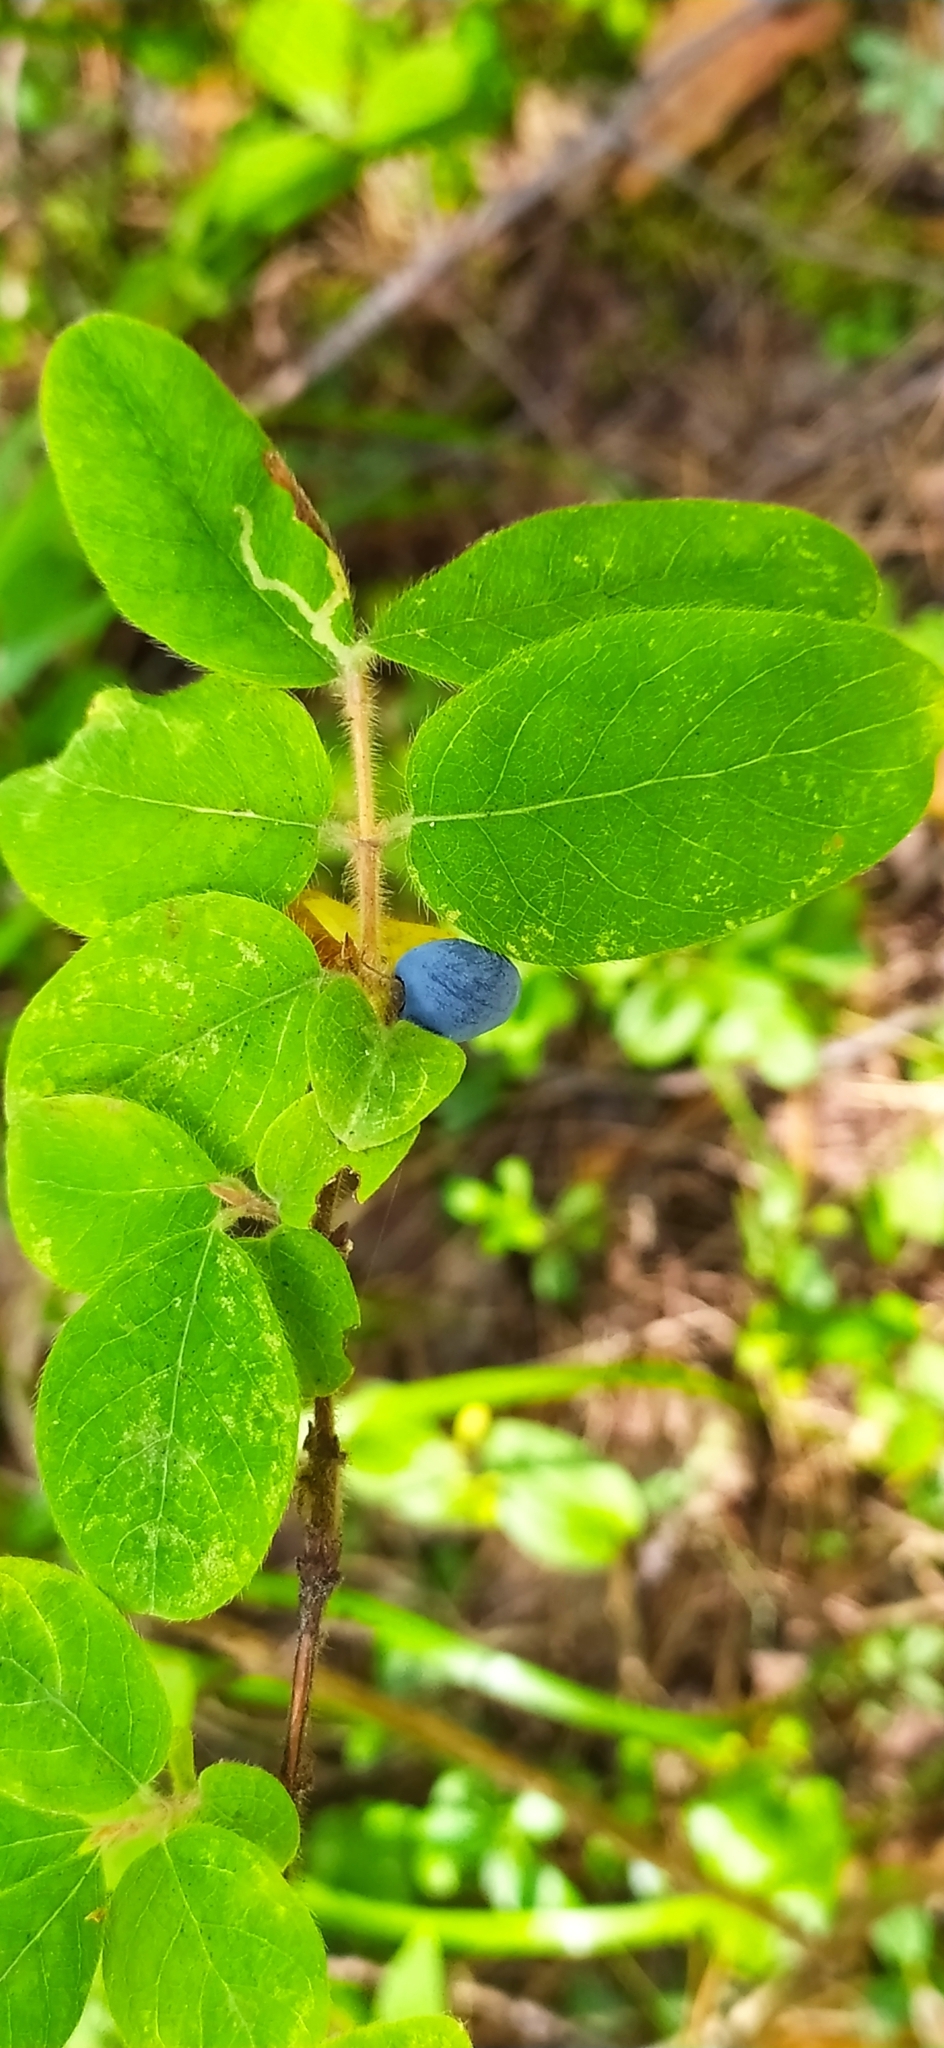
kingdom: Plantae
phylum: Tracheophyta
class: Magnoliopsida
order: Dipsacales
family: Caprifoliaceae
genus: Lonicera
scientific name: Lonicera caerulea
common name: Blue honeysuckle
